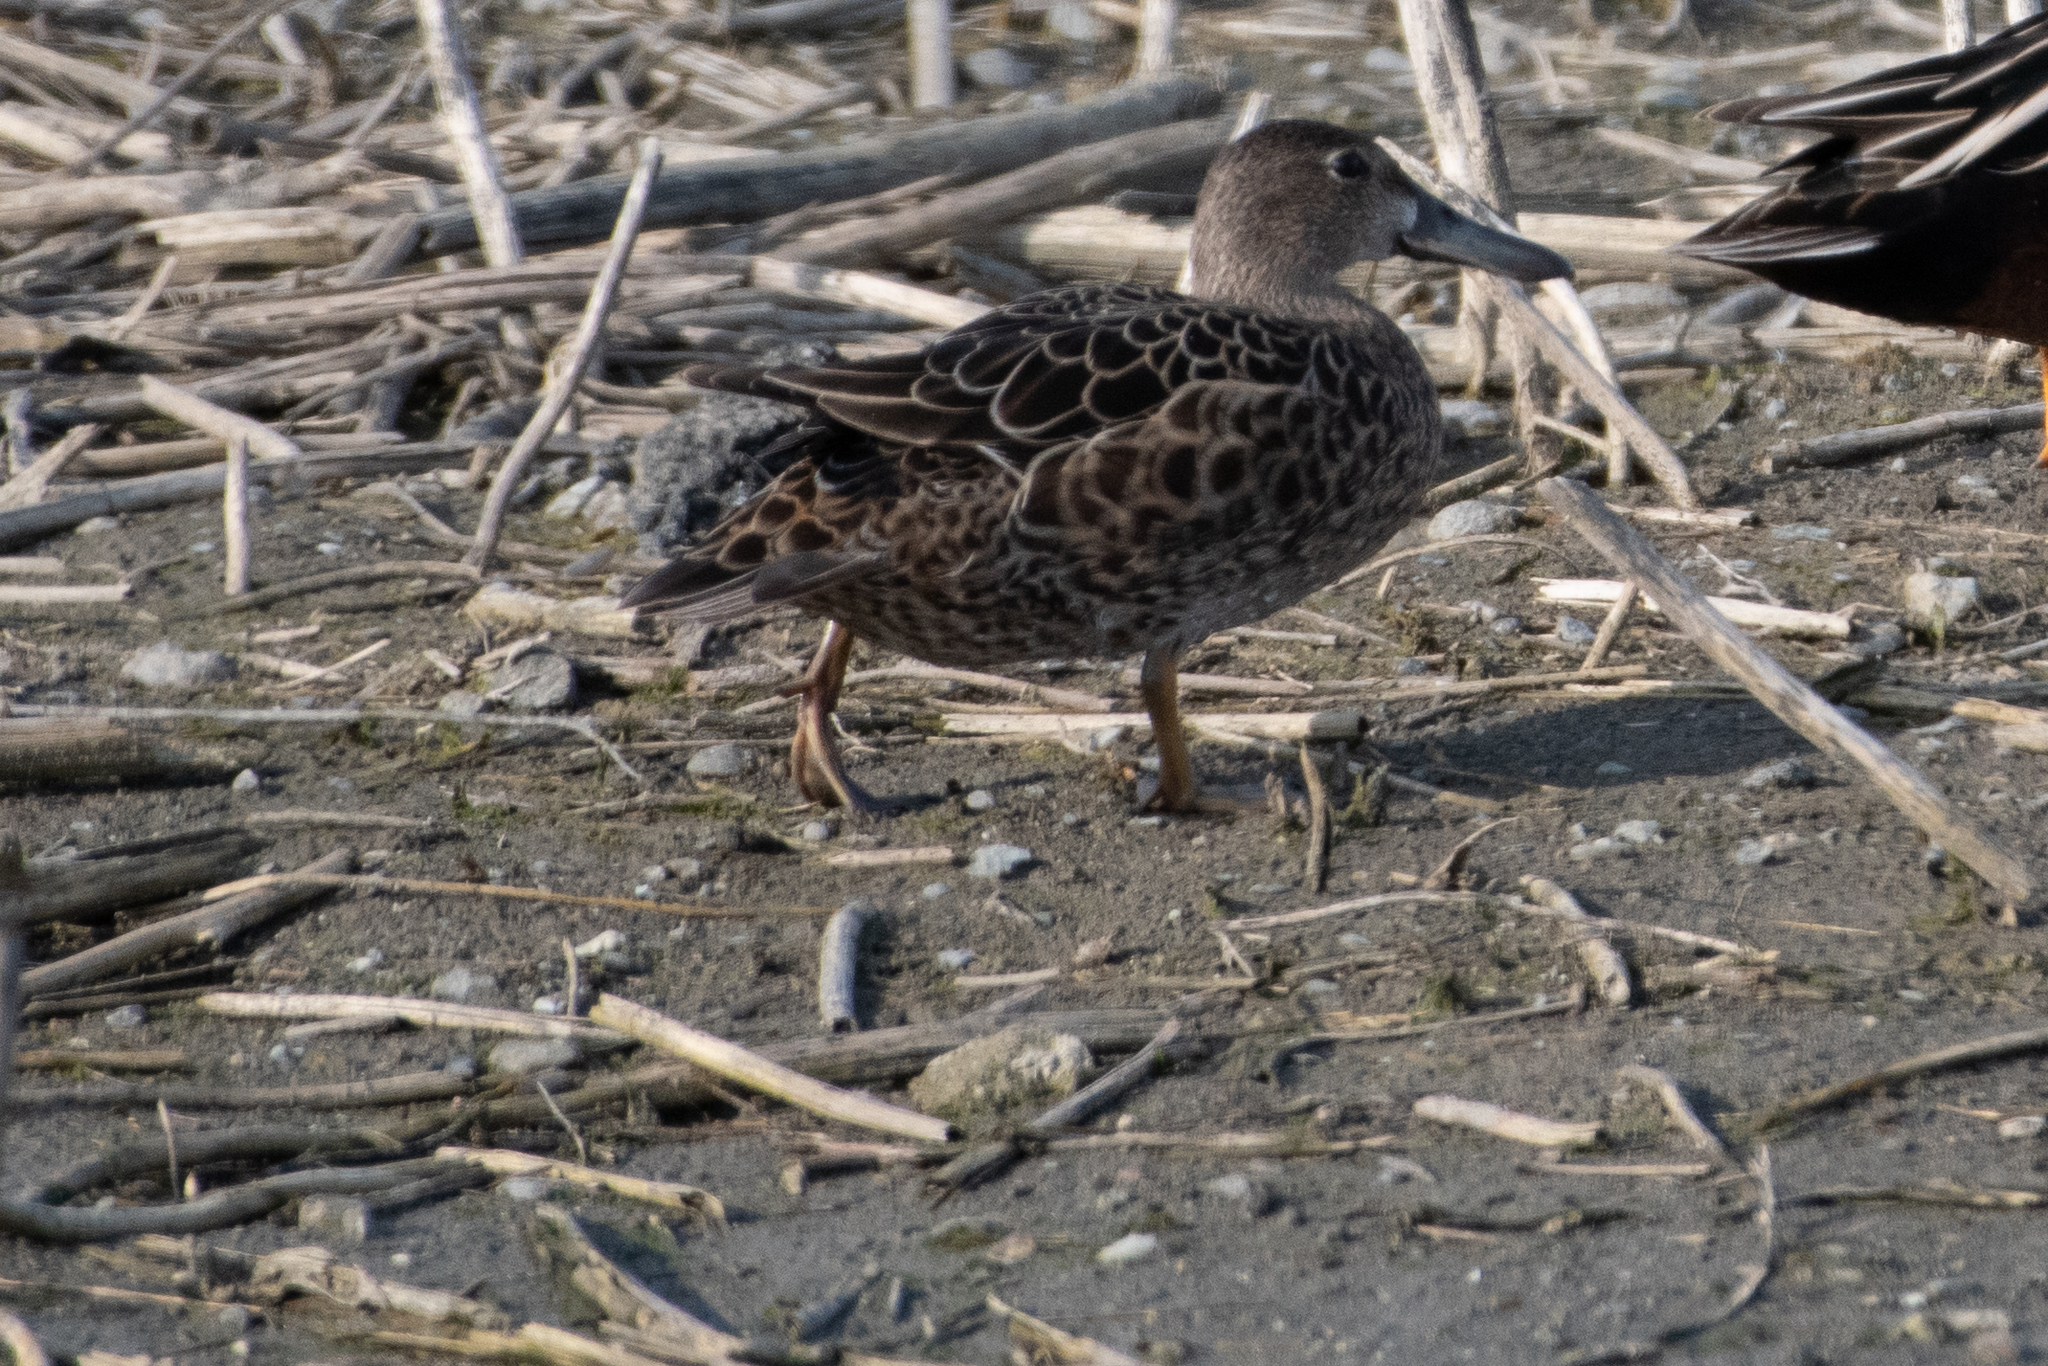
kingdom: Animalia
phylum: Chordata
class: Aves
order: Anseriformes
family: Anatidae
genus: Spatula
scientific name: Spatula cyanoptera
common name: Cinnamon teal
